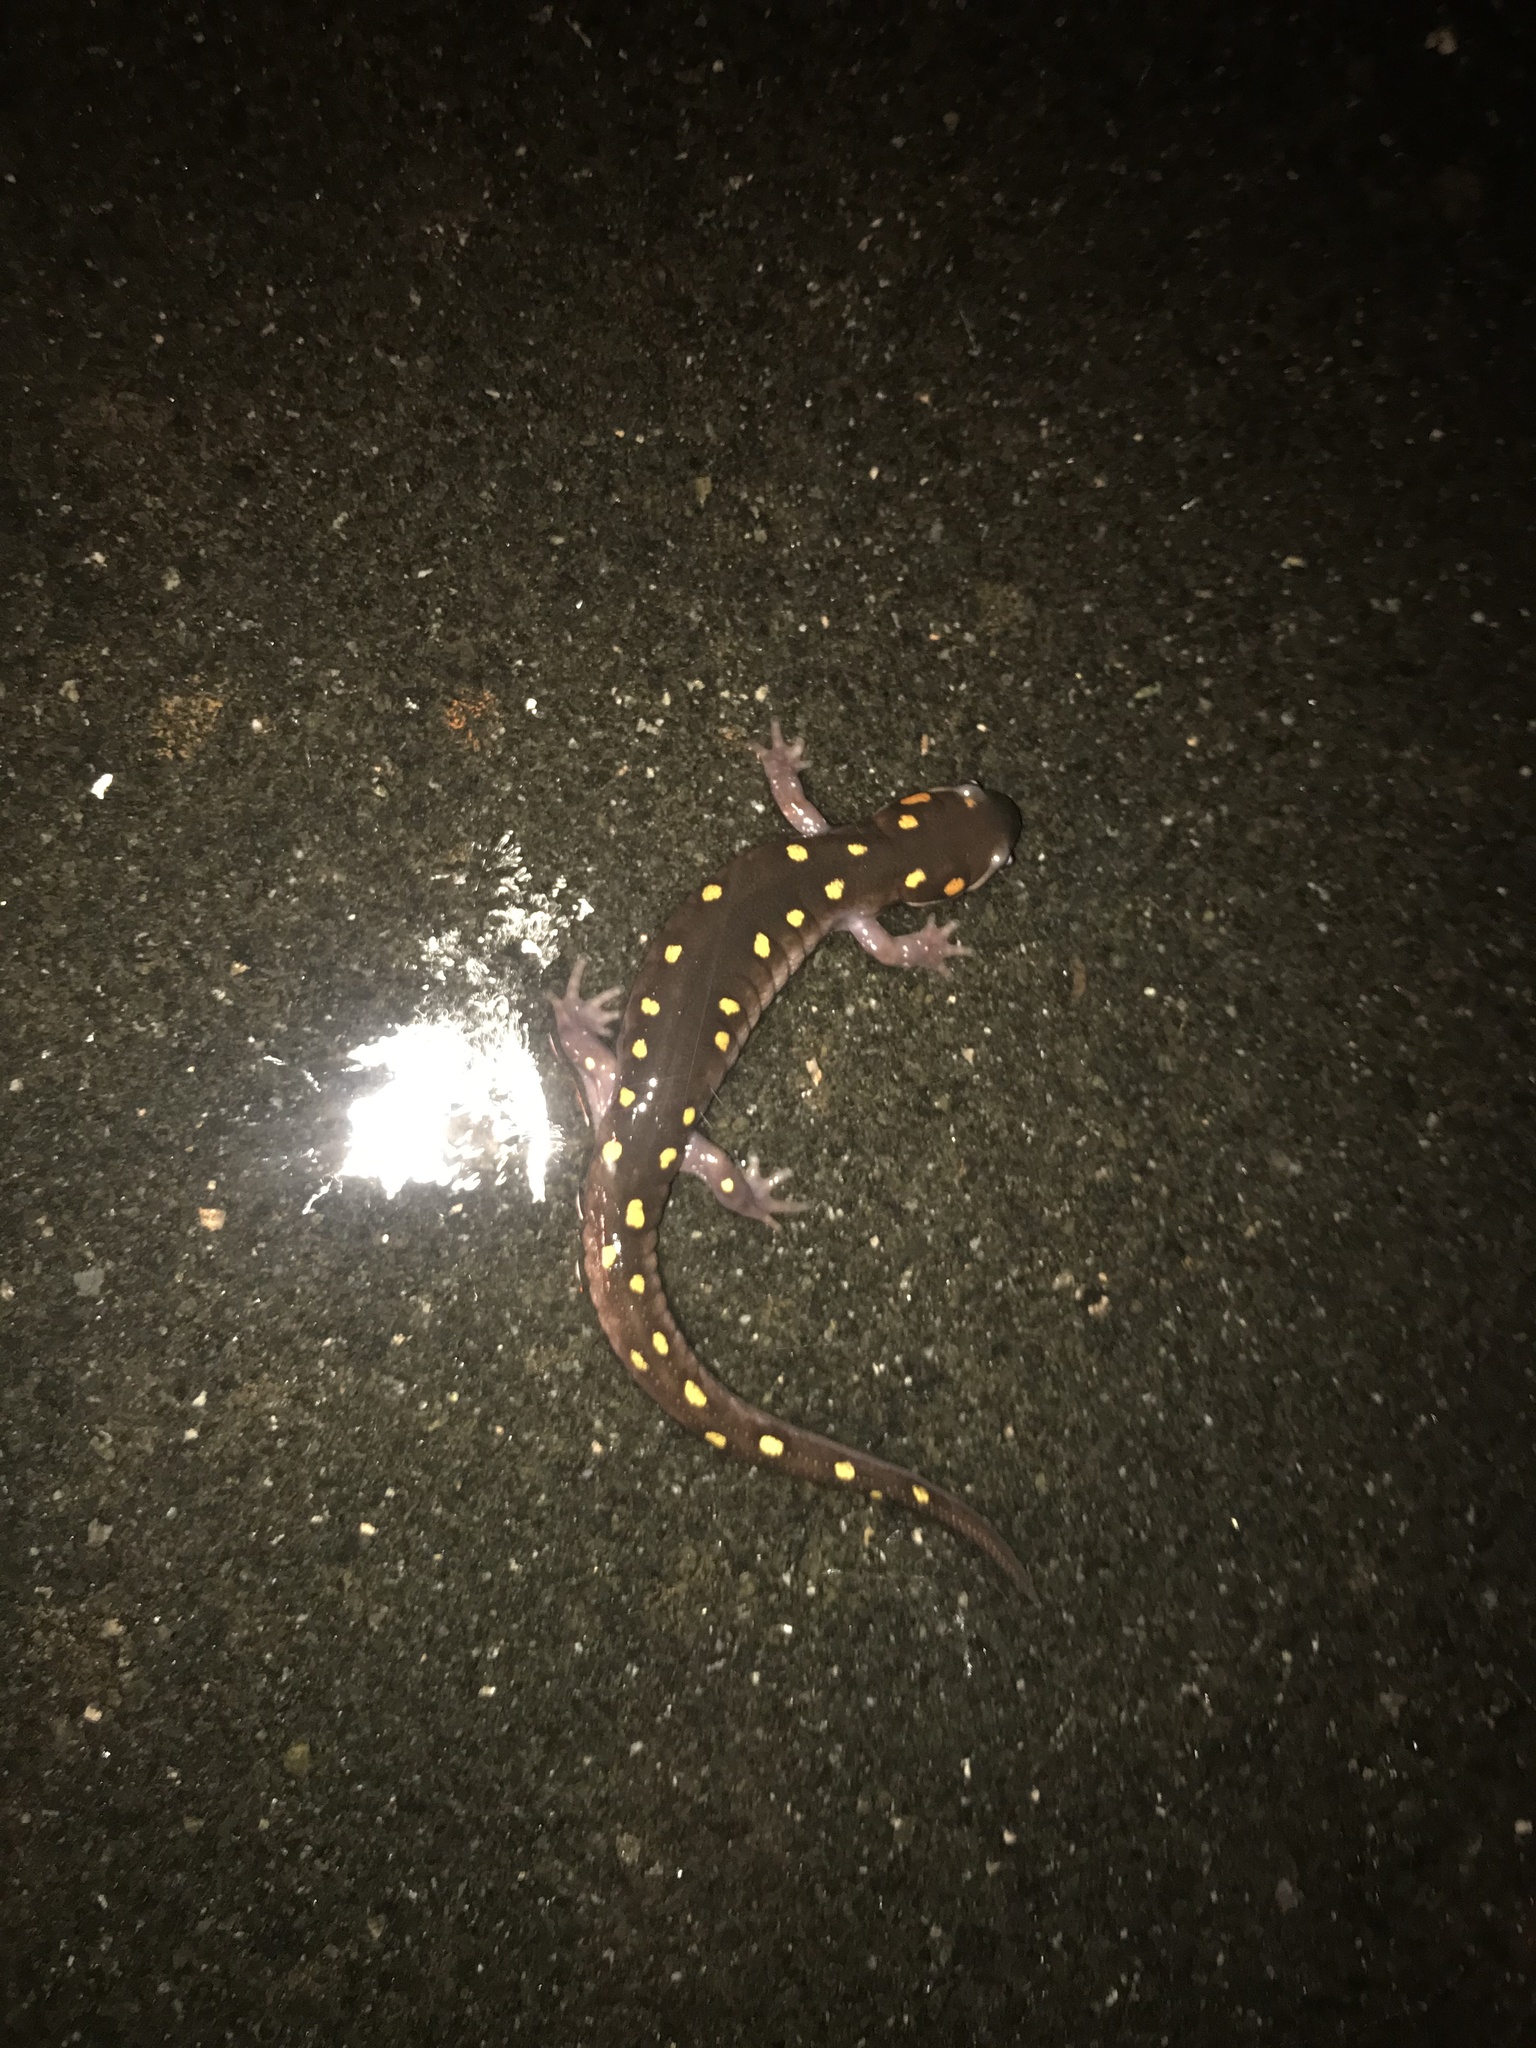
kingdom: Animalia
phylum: Chordata
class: Amphibia
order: Caudata
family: Ambystomatidae
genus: Ambystoma
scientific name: Ambystoma maculatum
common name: Spotted salamander
